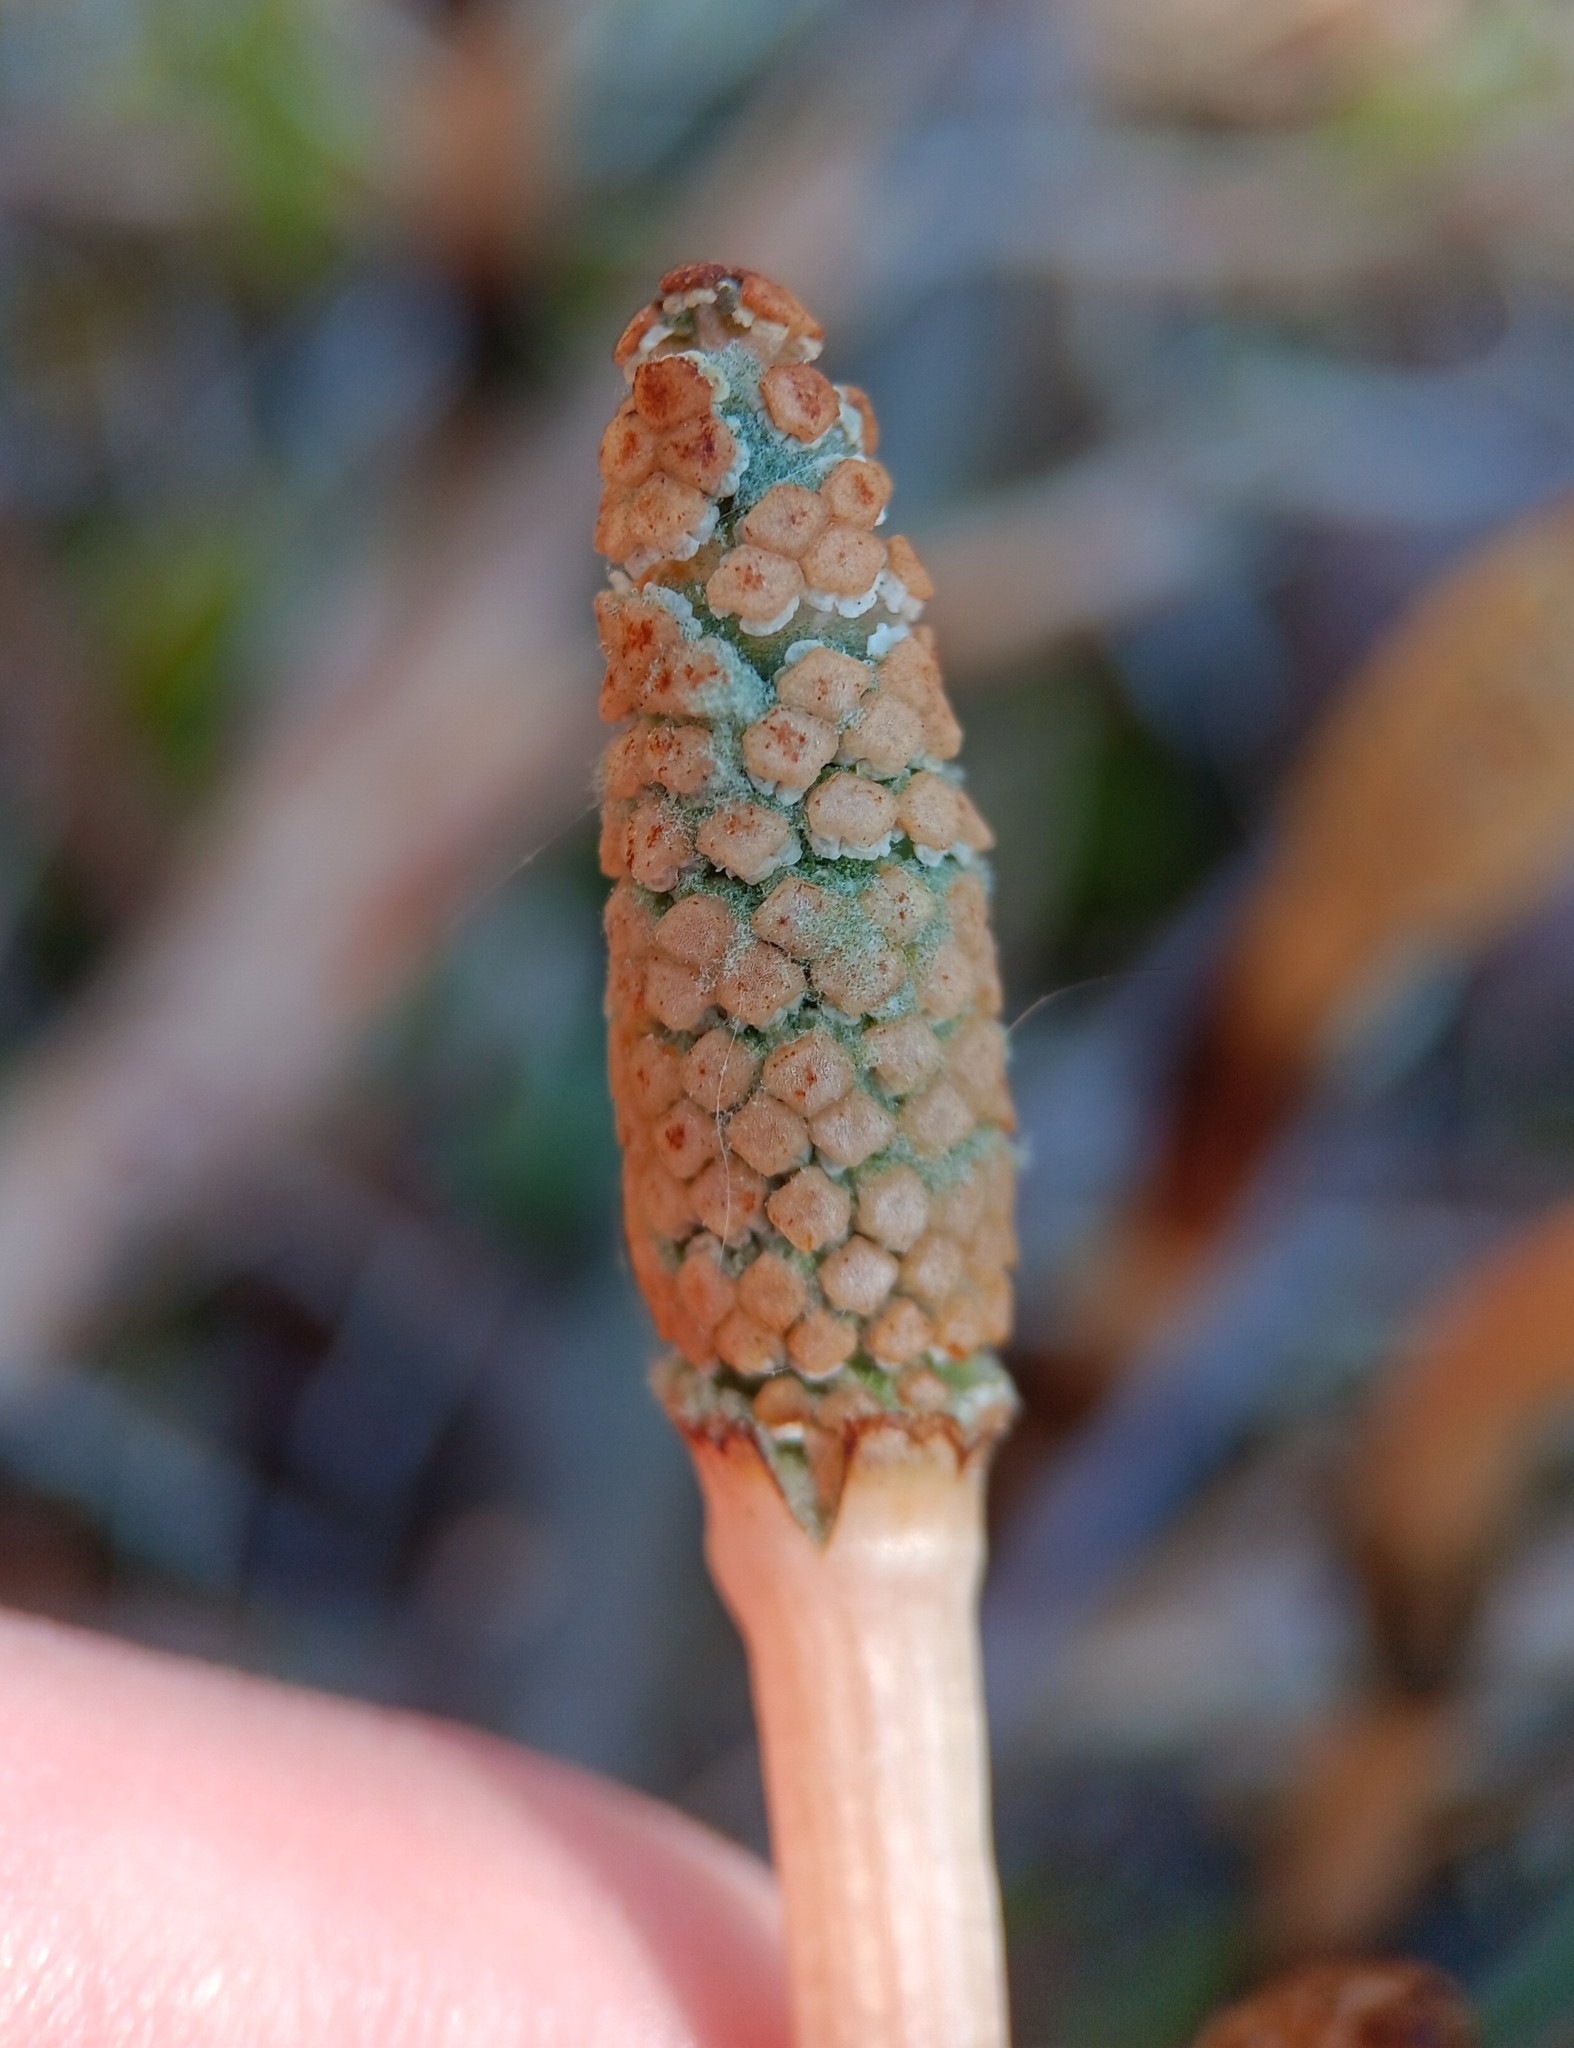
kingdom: Plantae
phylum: Tracheophyta
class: Polypodiopsida
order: Equisetales
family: Equisetaceae
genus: Equisetum
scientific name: Equisetum arvense
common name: Field horsetail
